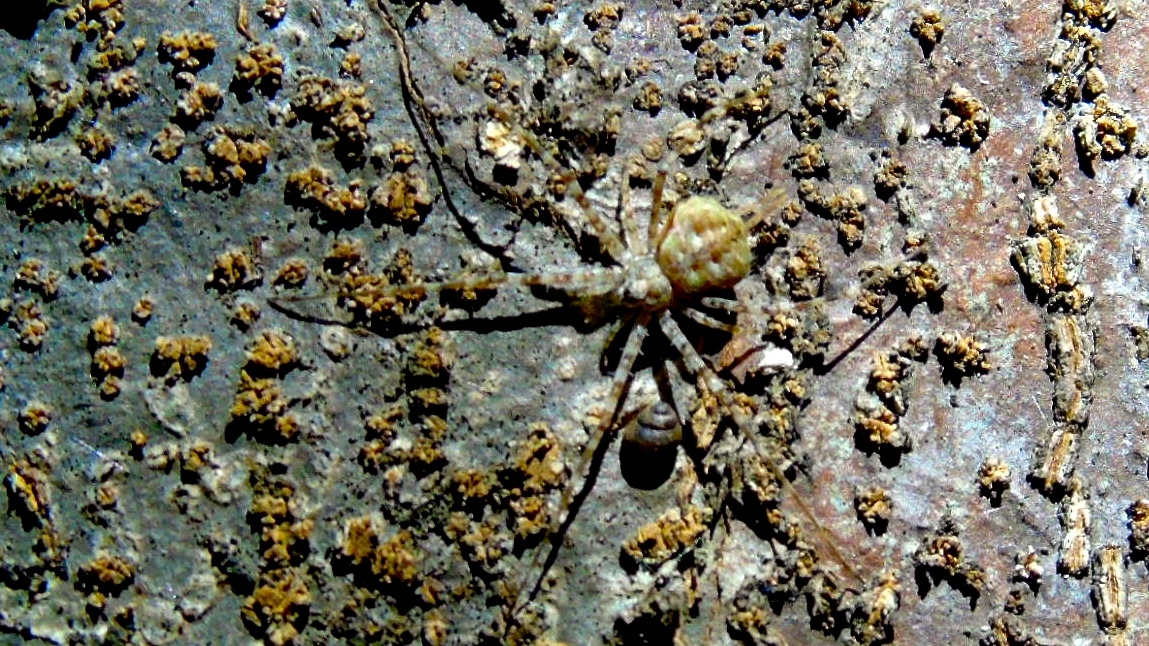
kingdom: Animalia
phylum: Arthropoda
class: Arachnida
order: Araneae
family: Hersiliidae
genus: Neotama
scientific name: Neotama mexicana
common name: Tree trunk spiders
